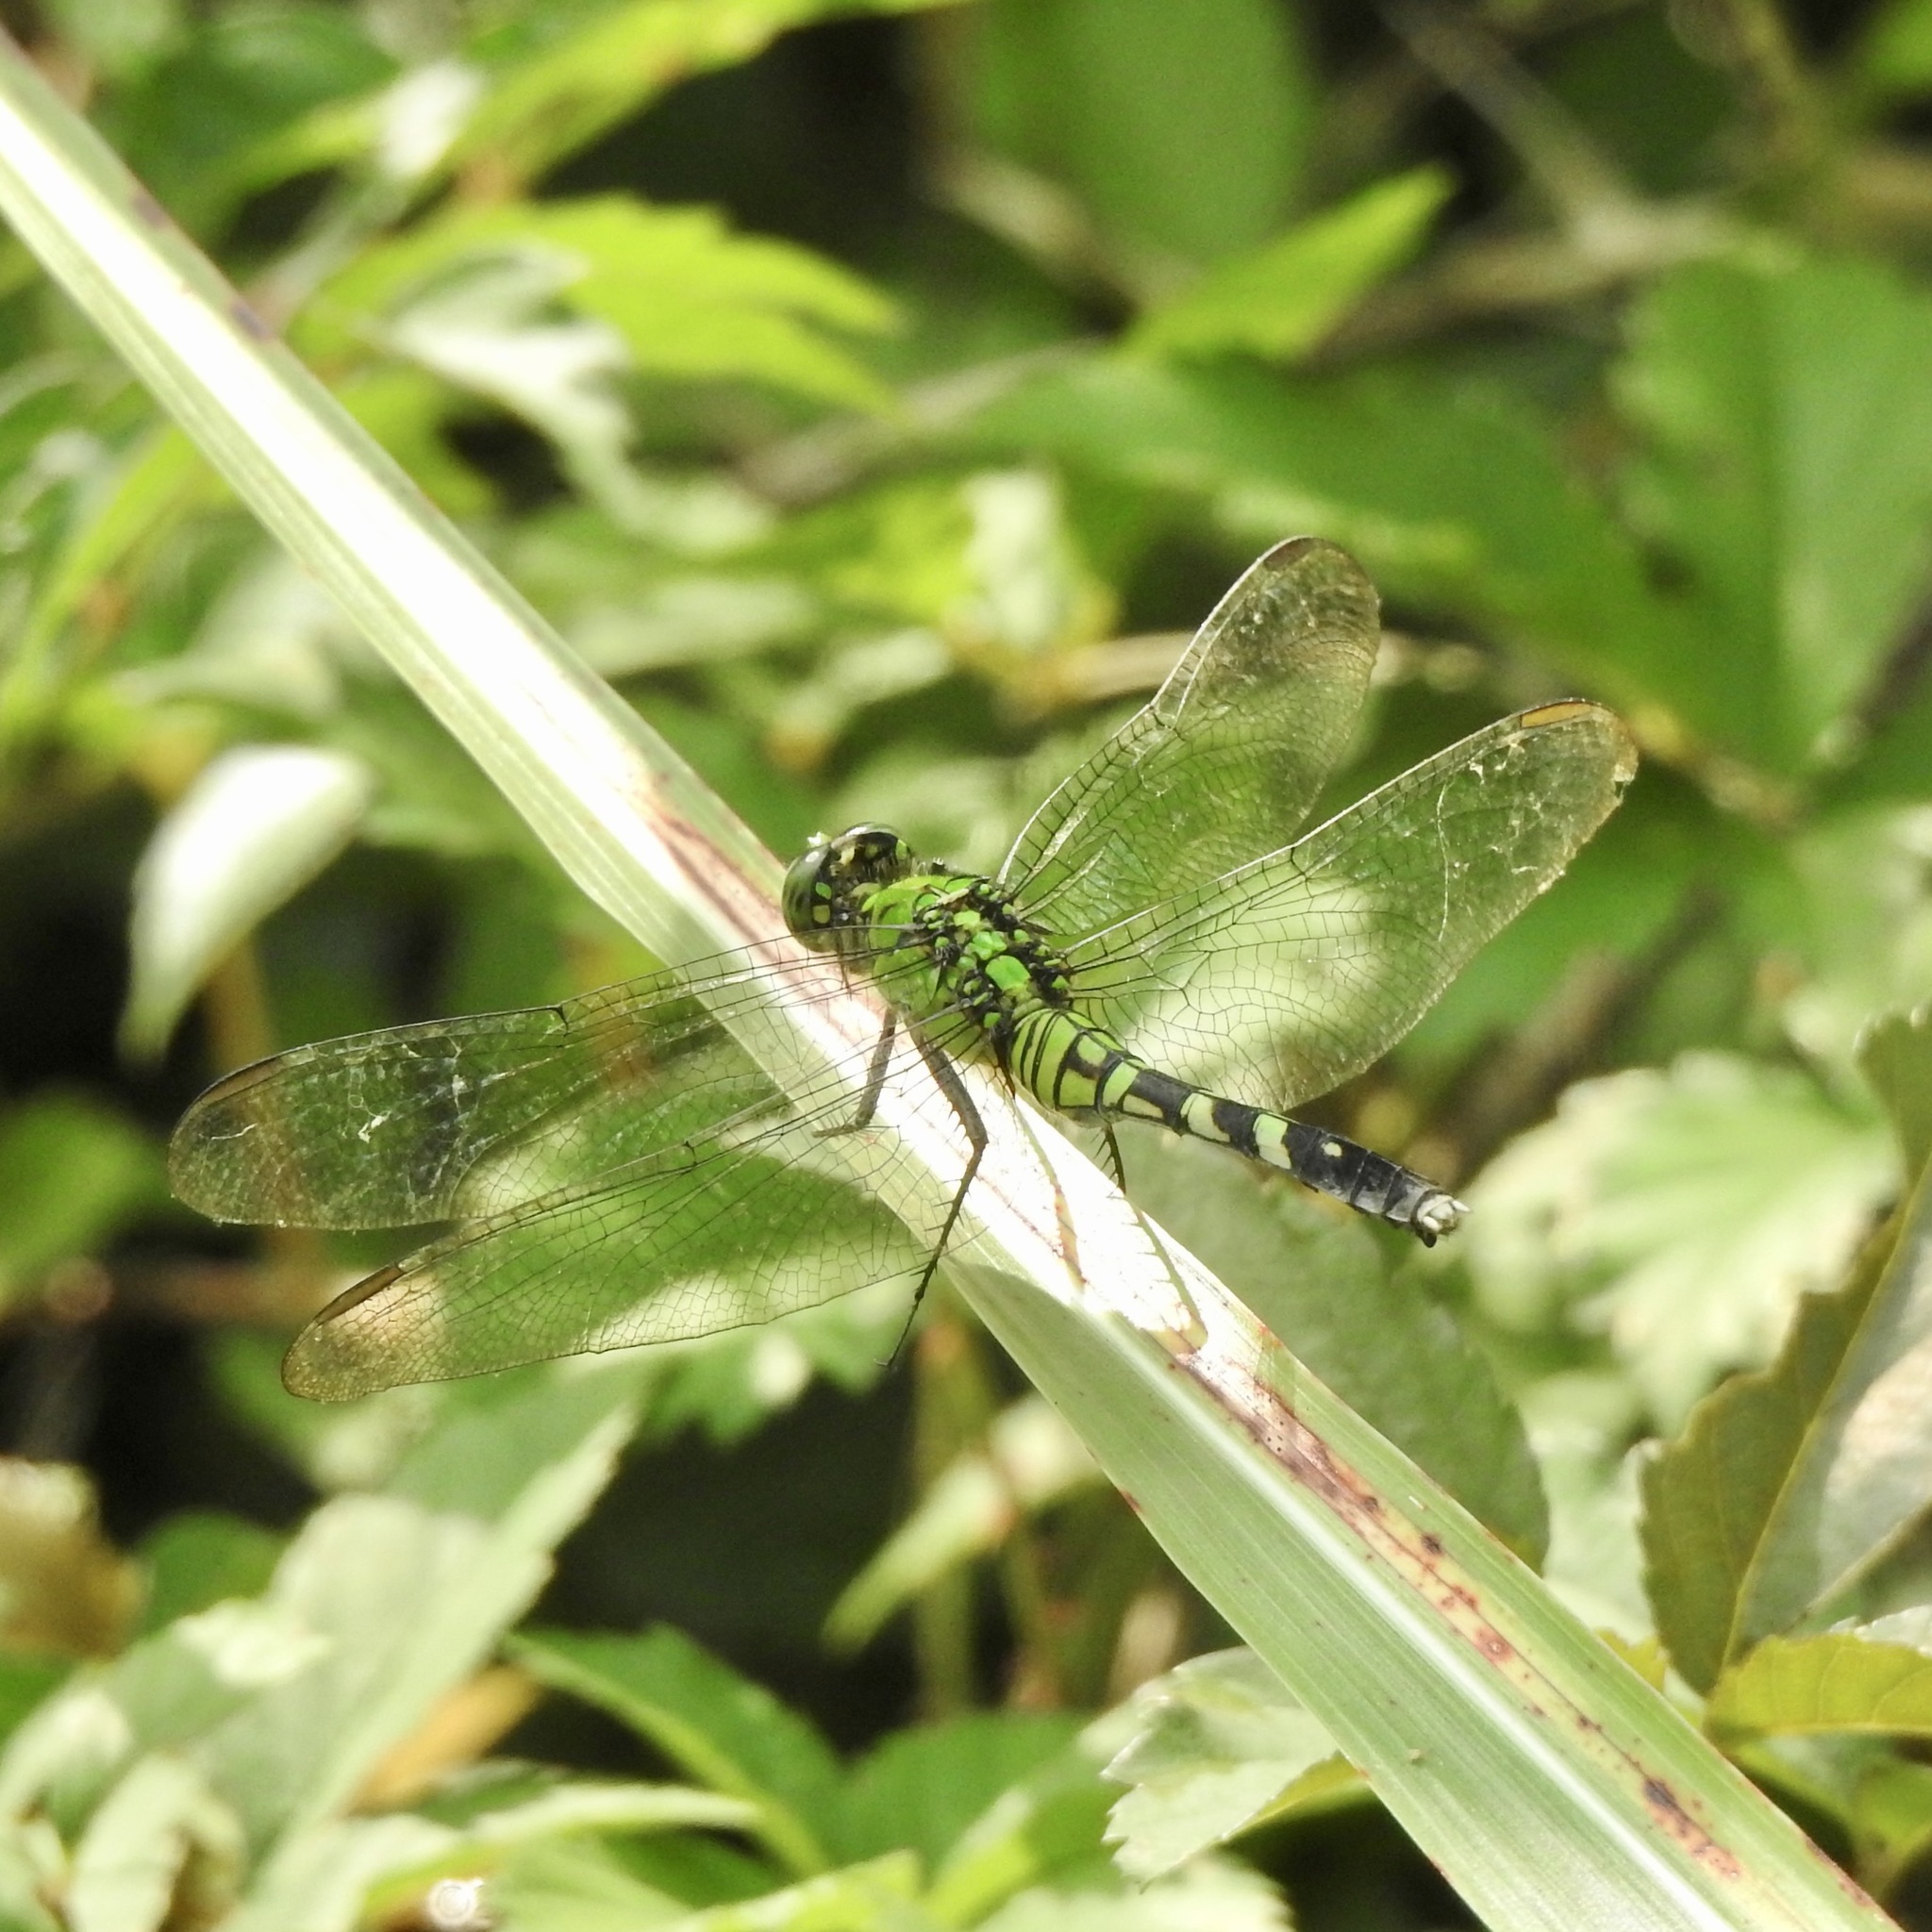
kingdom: Animalia
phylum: Arthropoda
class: Insecta
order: Odonata
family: Libellulidae
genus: Erythemis
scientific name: Erythemis simplicicollis
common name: Eastern pondhawk
